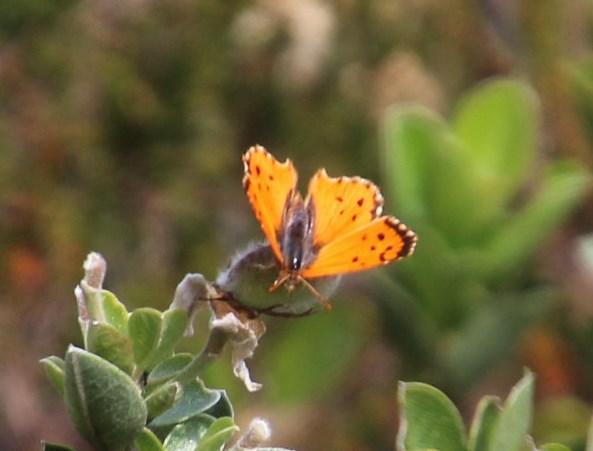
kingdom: Animalia
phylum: Arthropoda
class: Insecta
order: Lepidoptera
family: Lycaenidae
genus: Chrysoritis
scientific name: Chrysoritis
